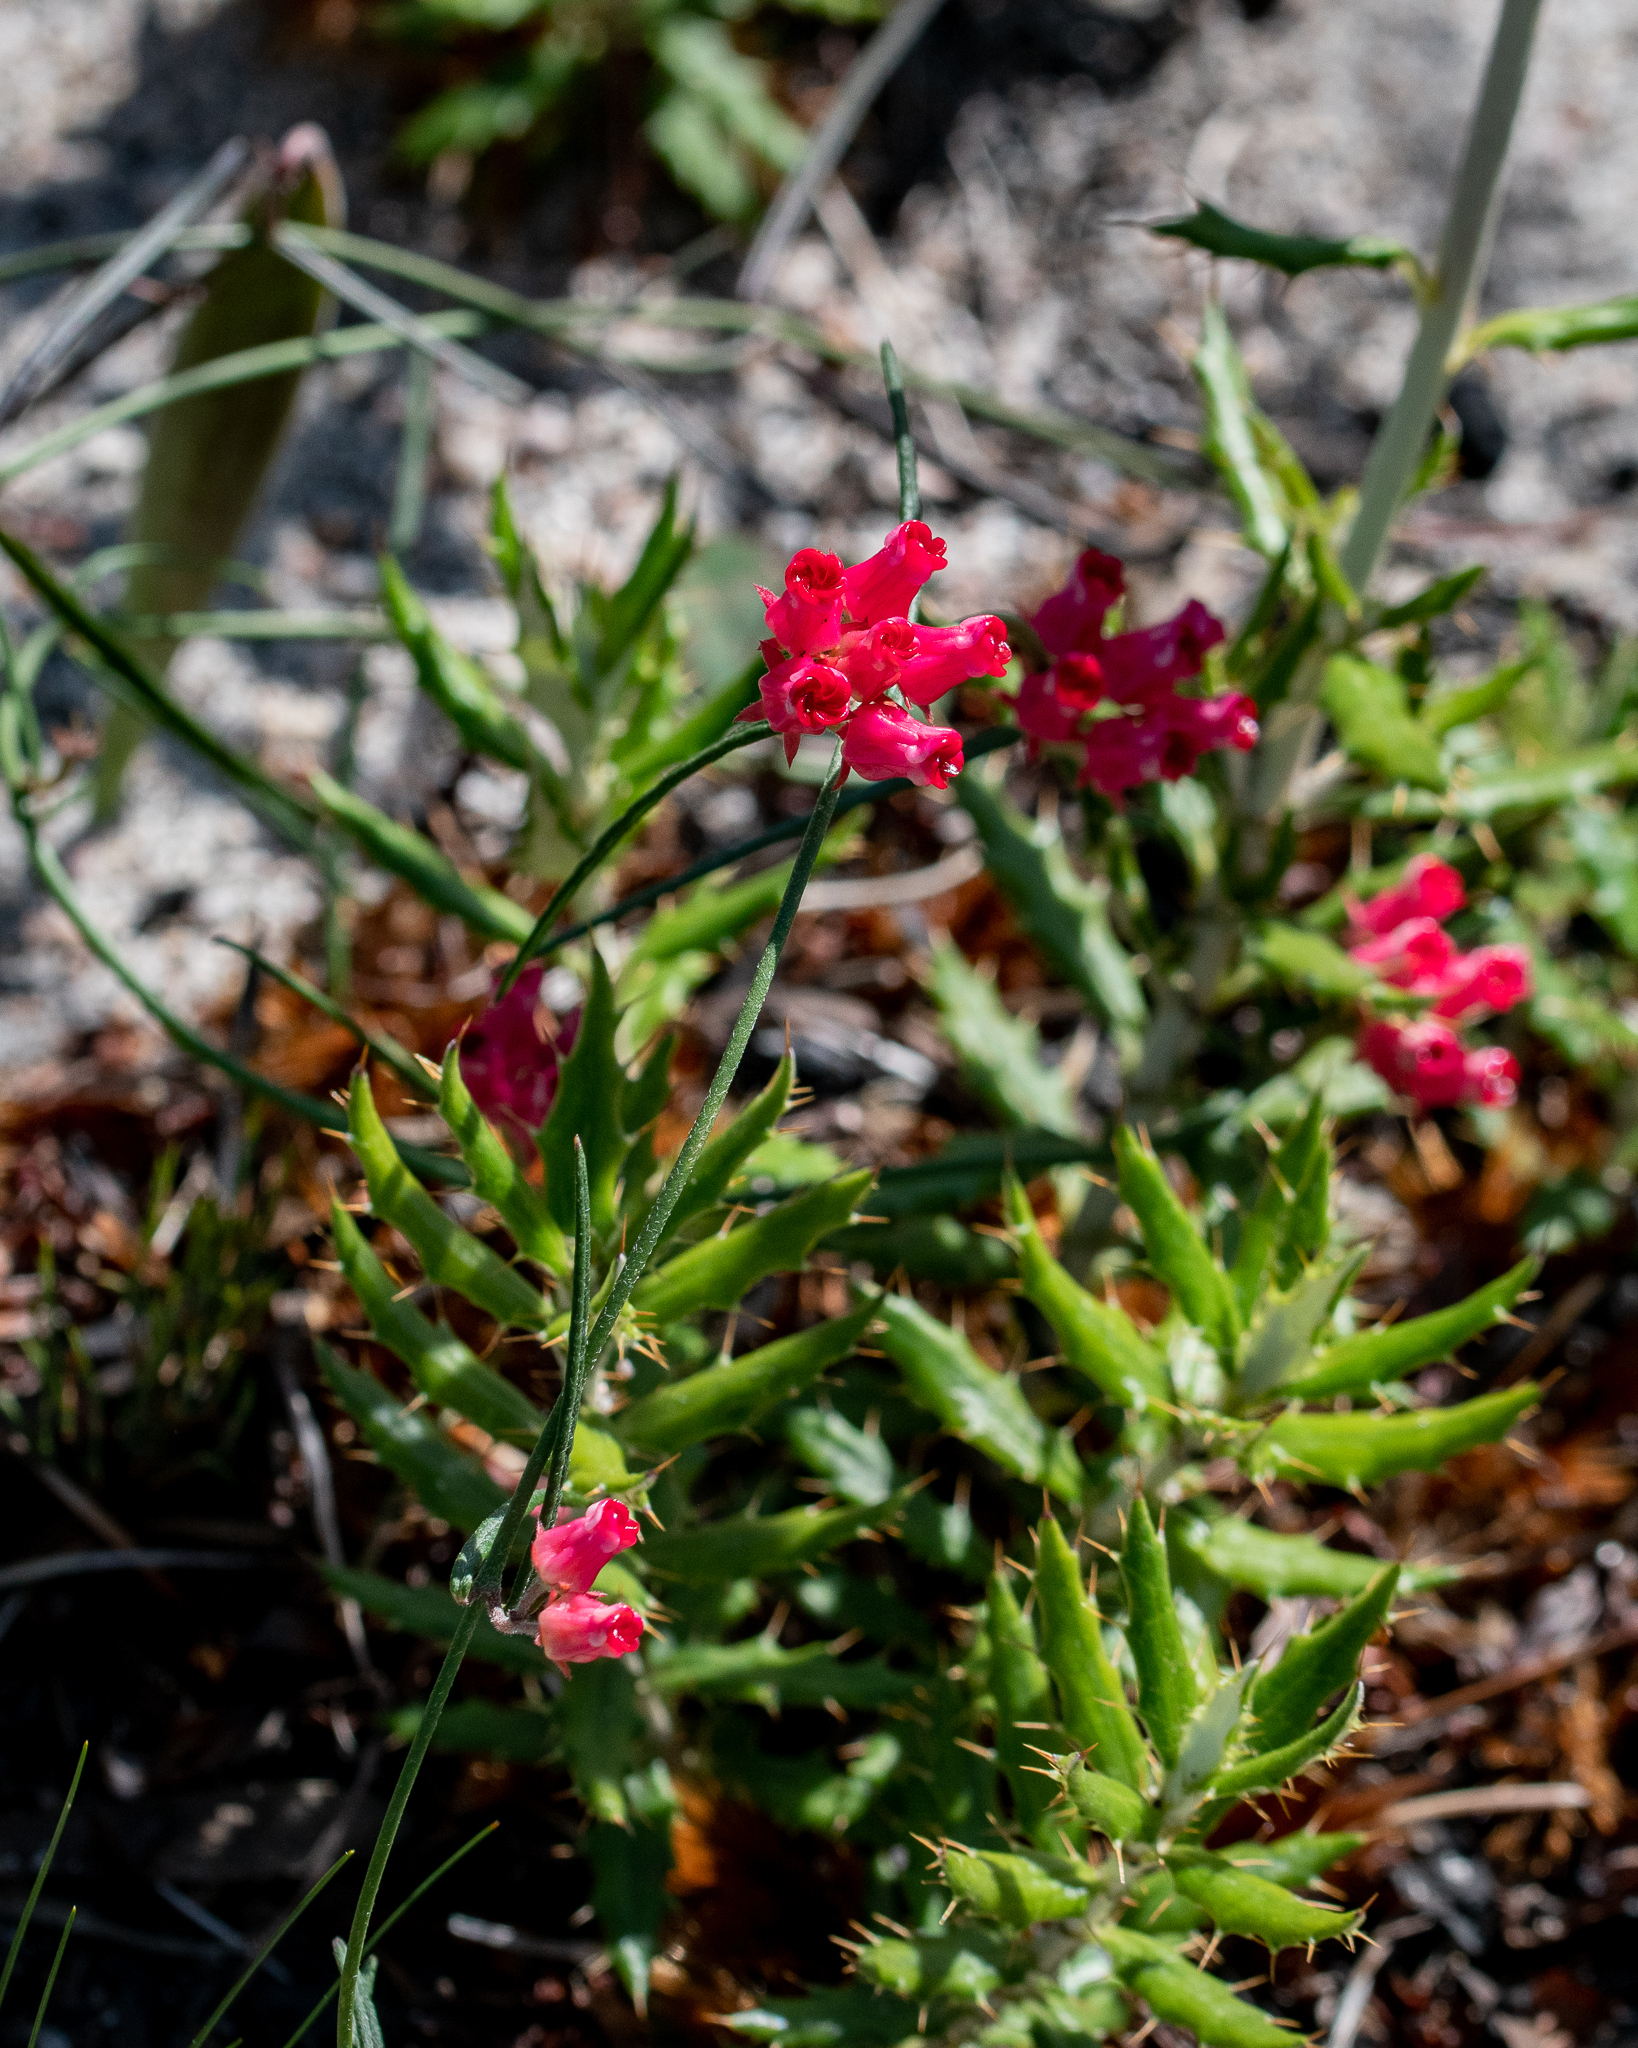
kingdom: Plantae
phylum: Tracheophyta
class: Magnoliopsida
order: Gentianales
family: Apocynaceae
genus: Microloma
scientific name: Microloma tenuifolium
